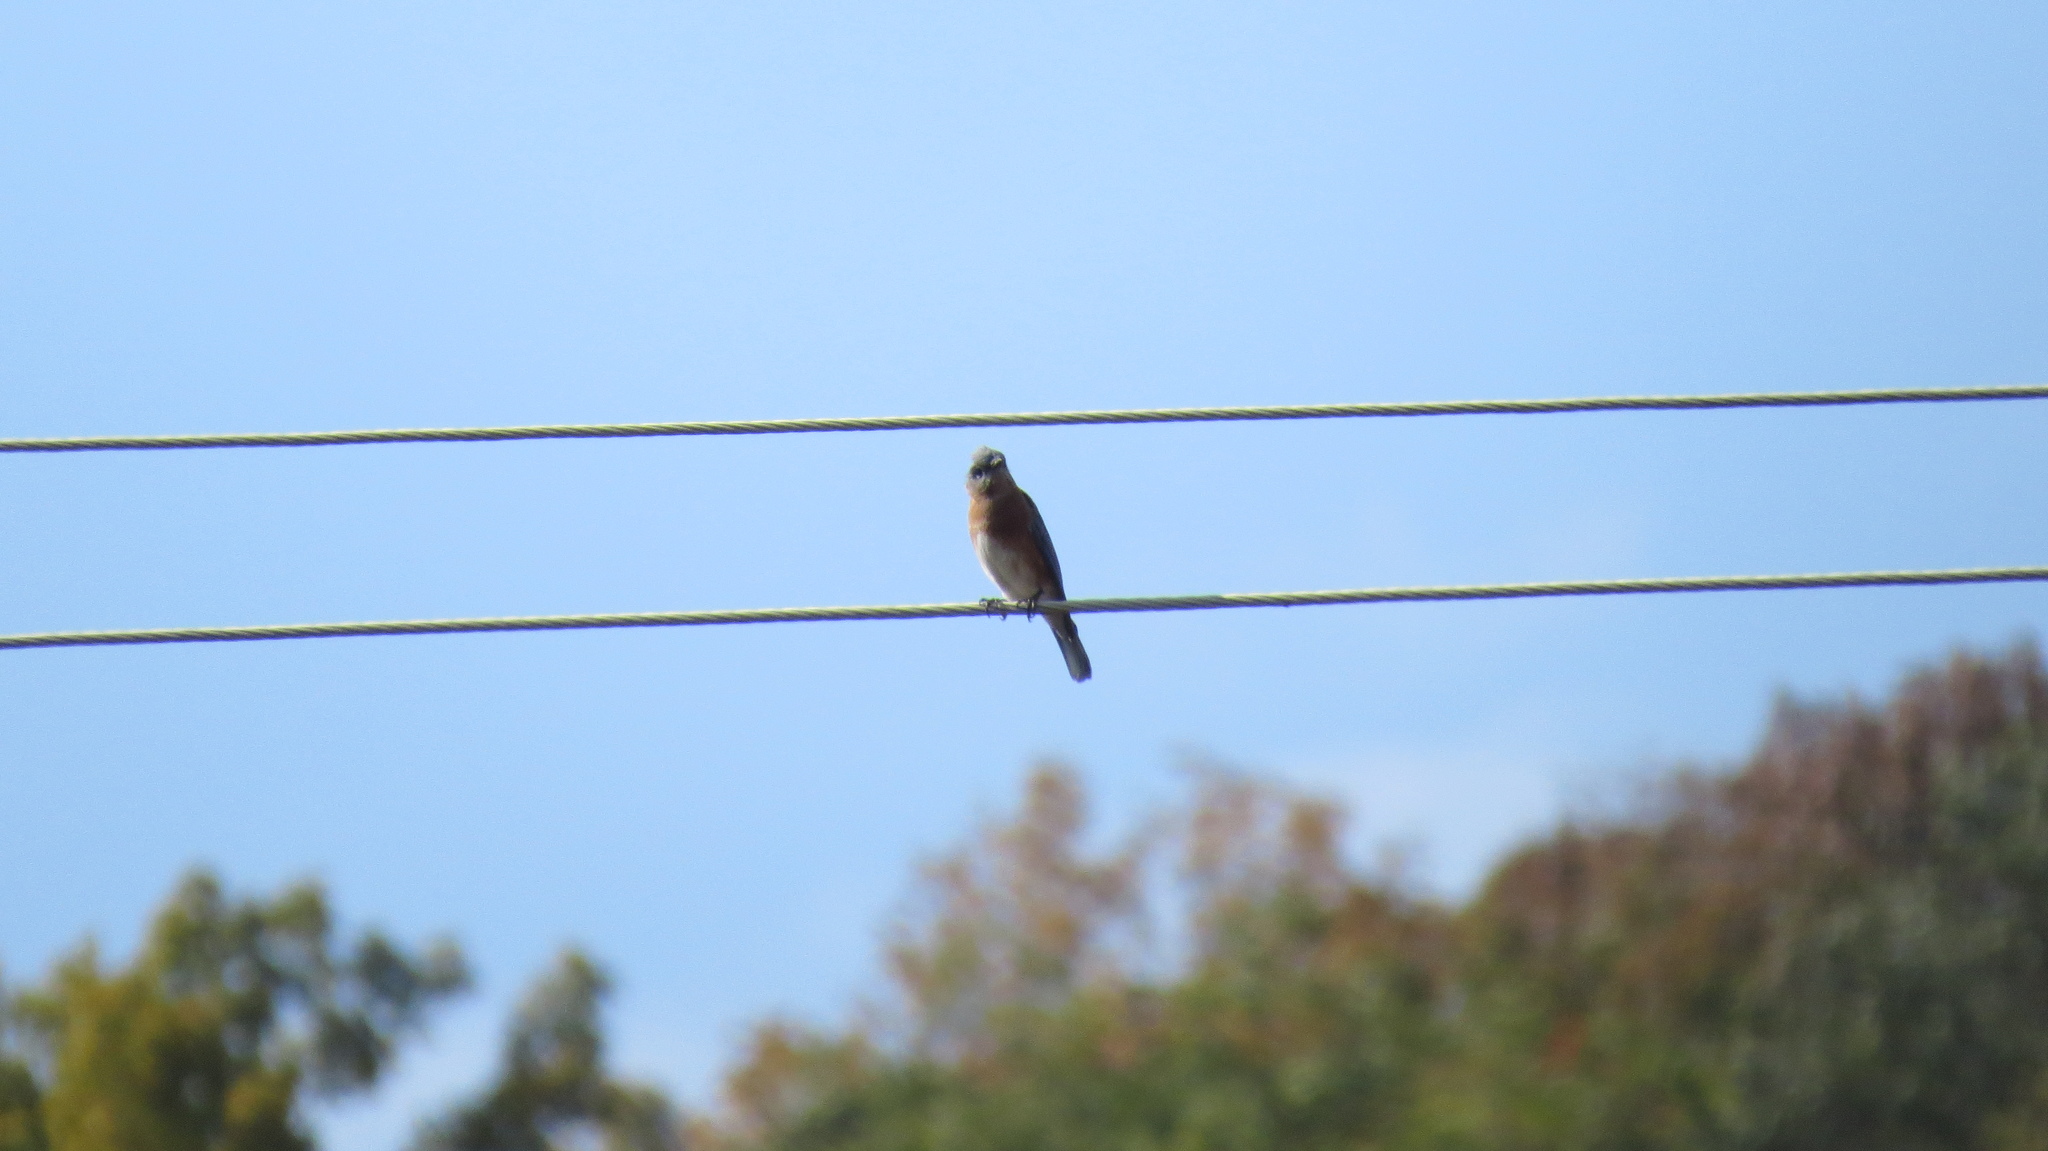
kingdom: Animalia
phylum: Chordata
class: Aves
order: Passeriformes
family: Turdidae
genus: Sialia
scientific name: Sialia sialis
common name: Eastern bluebird
